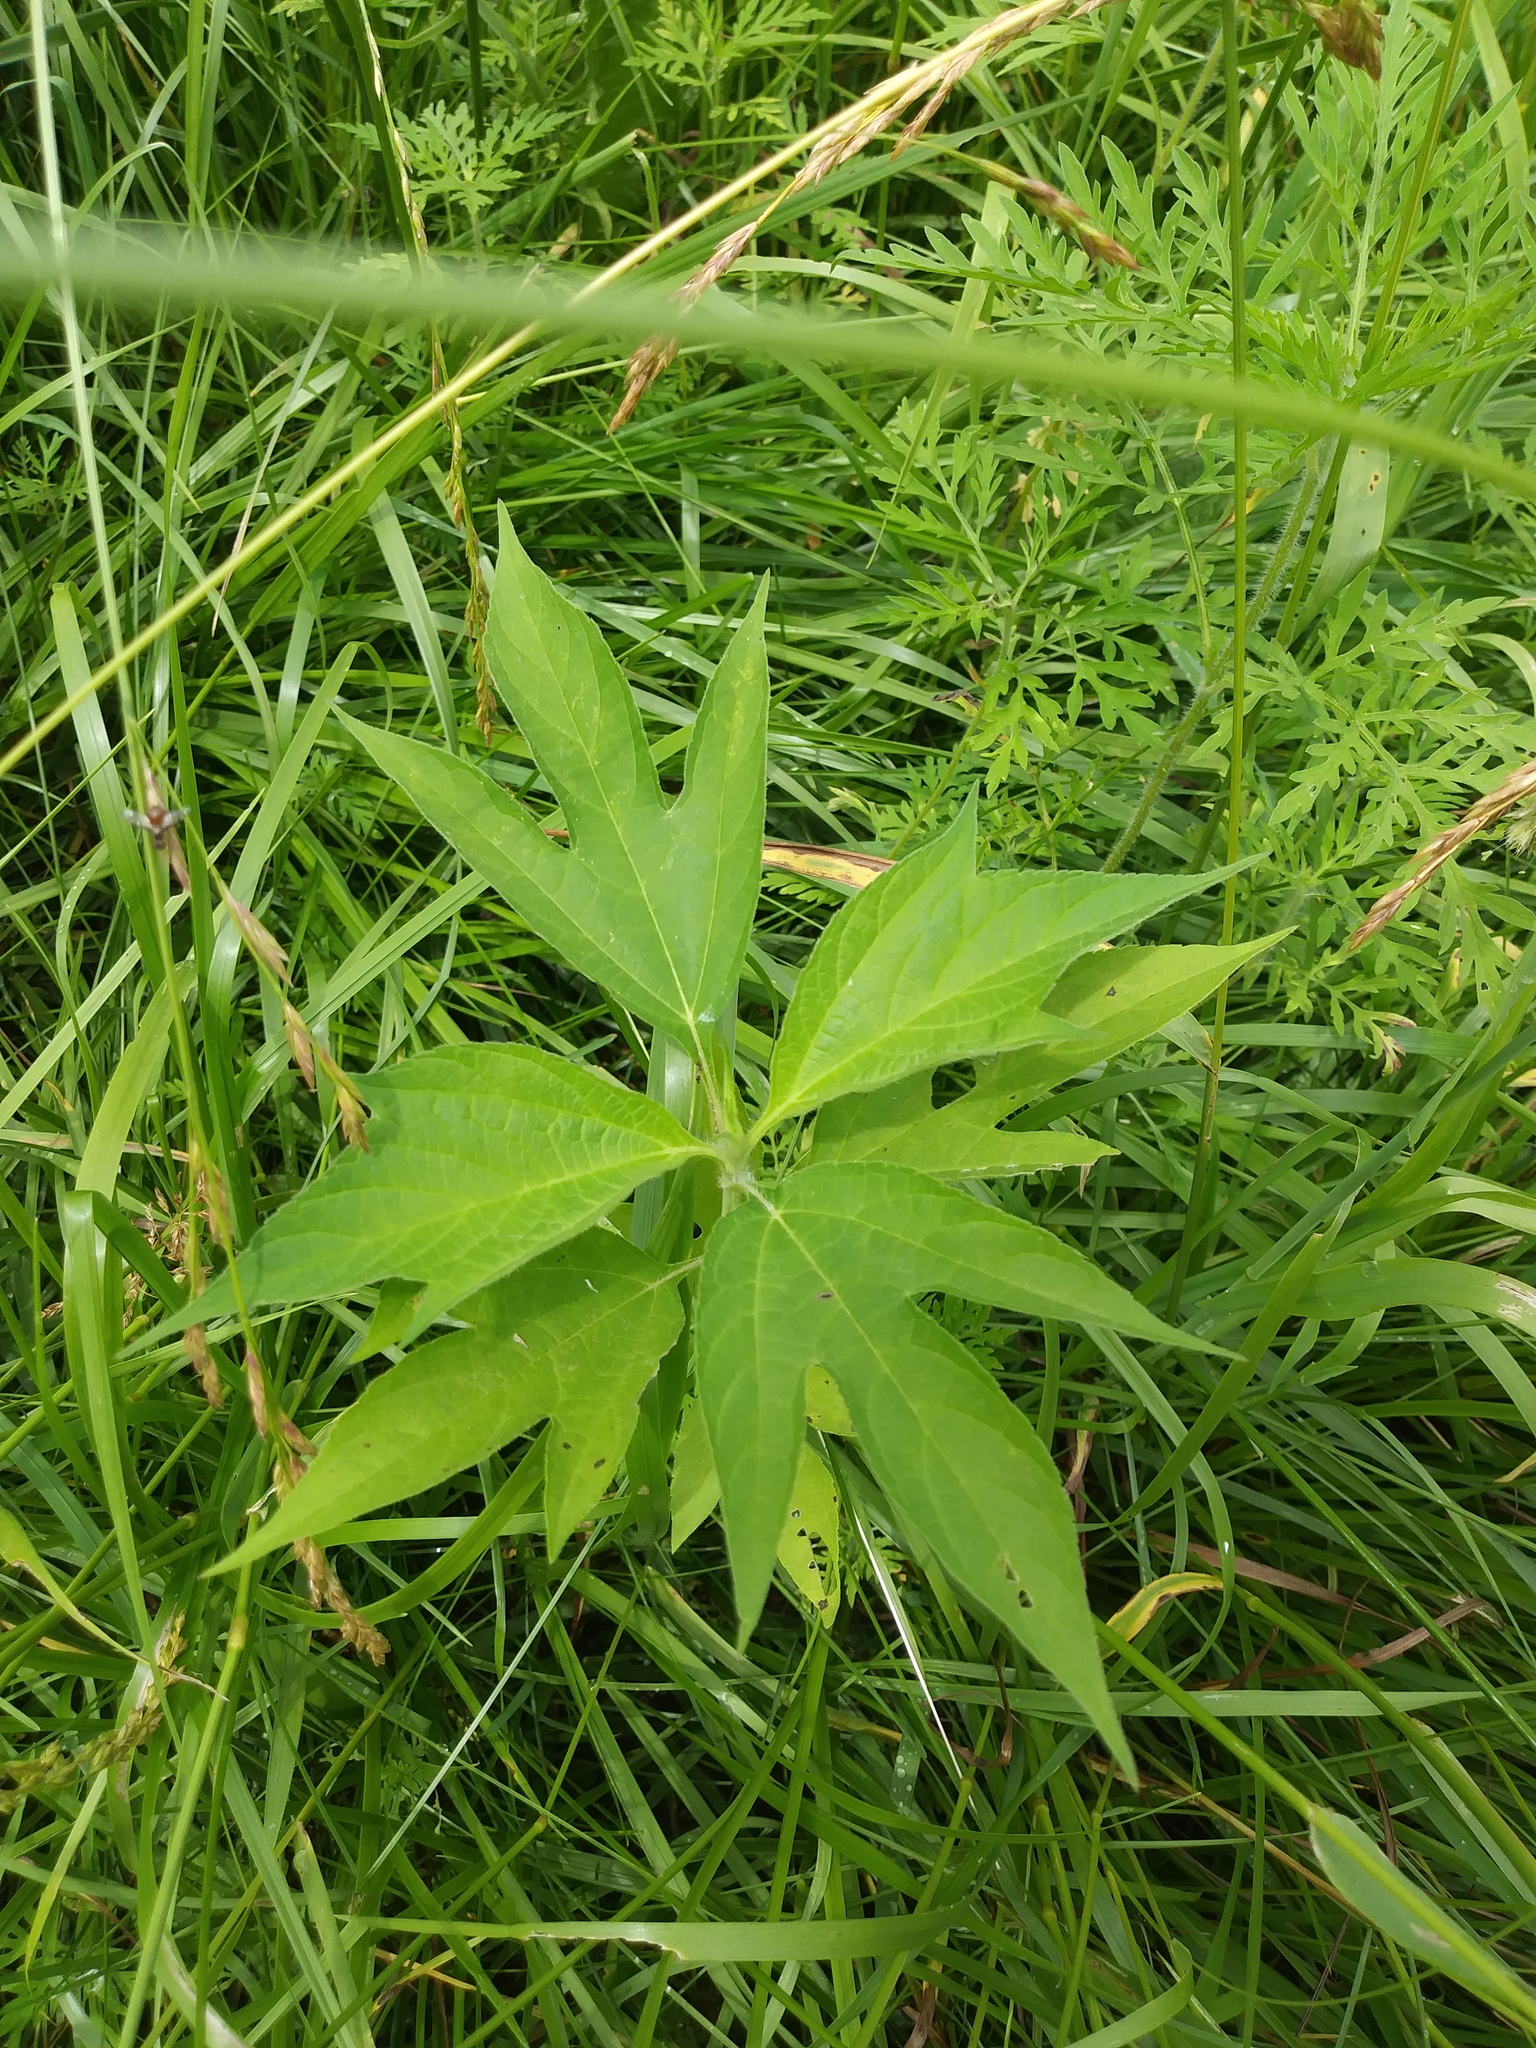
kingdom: Plantae
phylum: Tracheophyta
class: Magnoliopsida
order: Asterales
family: Asteraceae
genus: Ambrosia
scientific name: Ambrosia trifida
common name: Giant ragweed
